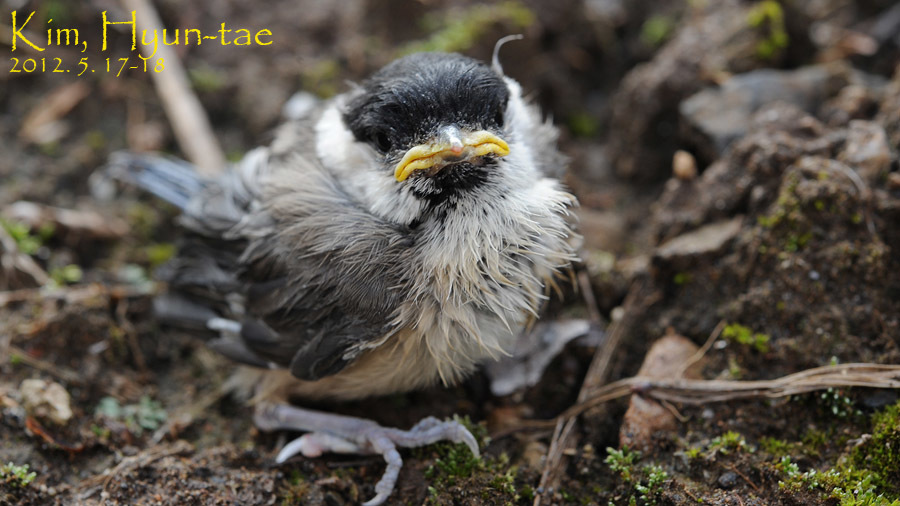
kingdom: Animalia
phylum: Chordata
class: Aves
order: Passeriformes
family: Paridae
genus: Parus
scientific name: Parus minor
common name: Japanese tit
